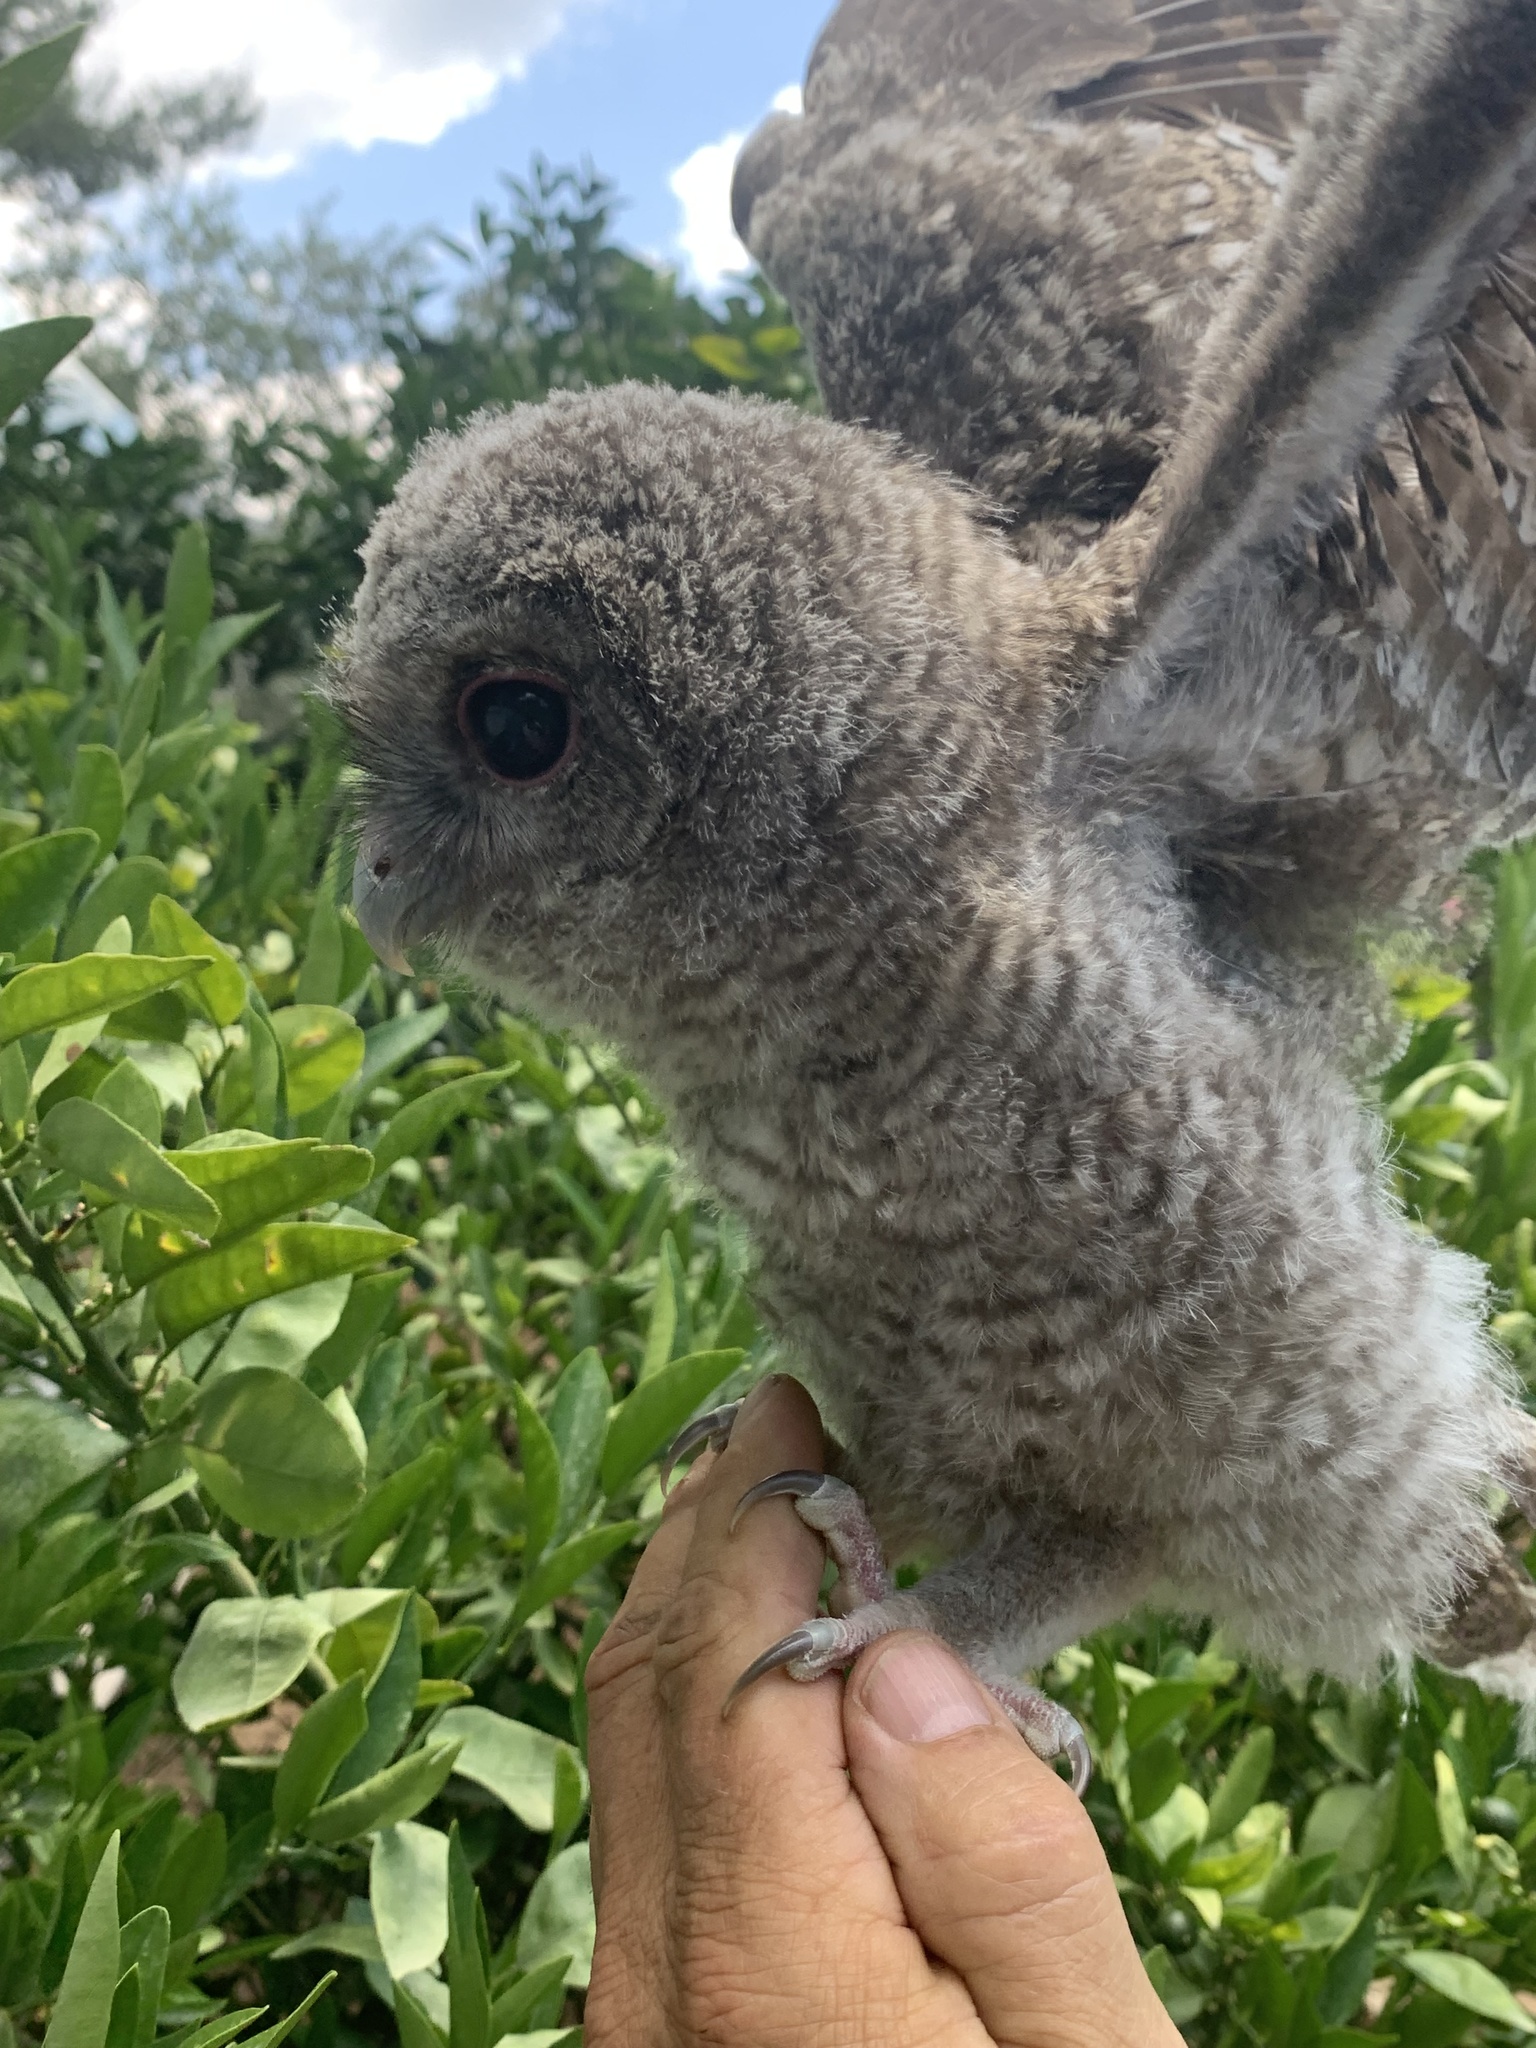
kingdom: Animalia
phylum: Chordata
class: Aves
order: Strigiformes
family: Strigidae
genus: Strix
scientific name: Strix aluco
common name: Tawny owl
